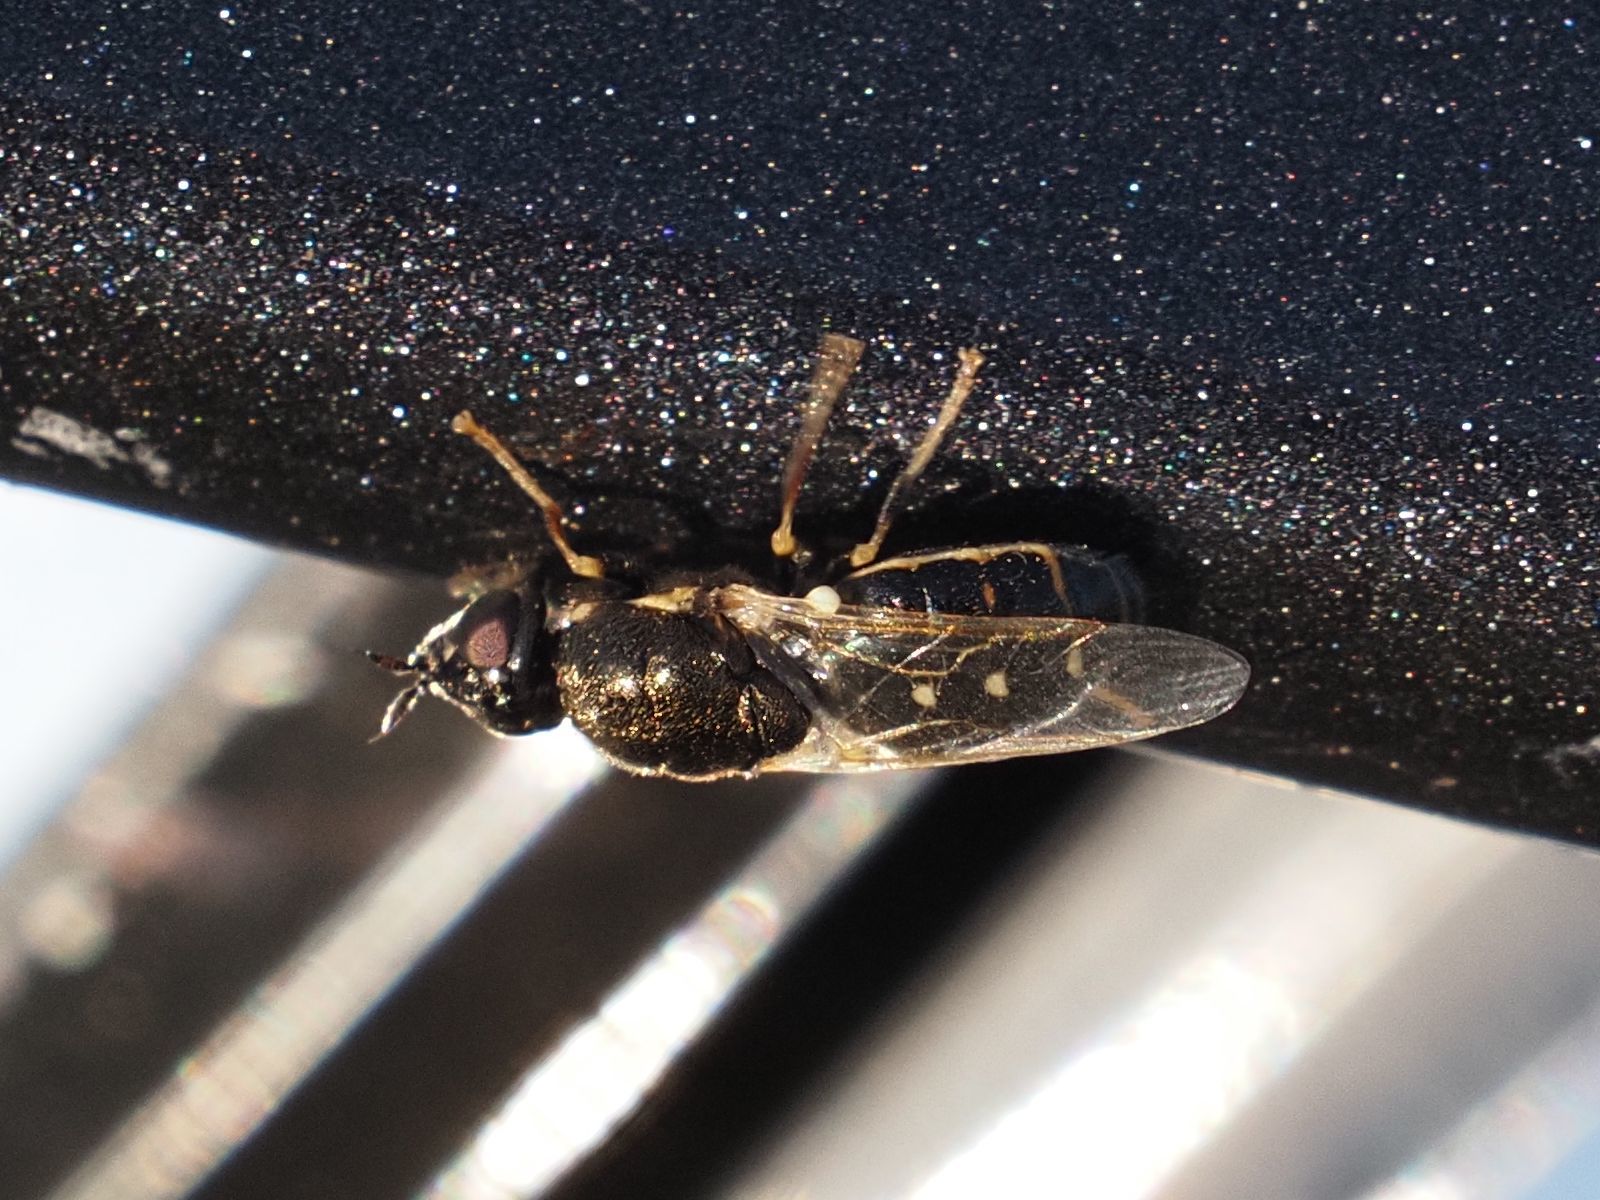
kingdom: Animalia
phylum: Arthropoda
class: Insecta
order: Diptera
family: Stratiomyidae
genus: Nemotelus
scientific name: Nemotelus notatus
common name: Flecked snout
